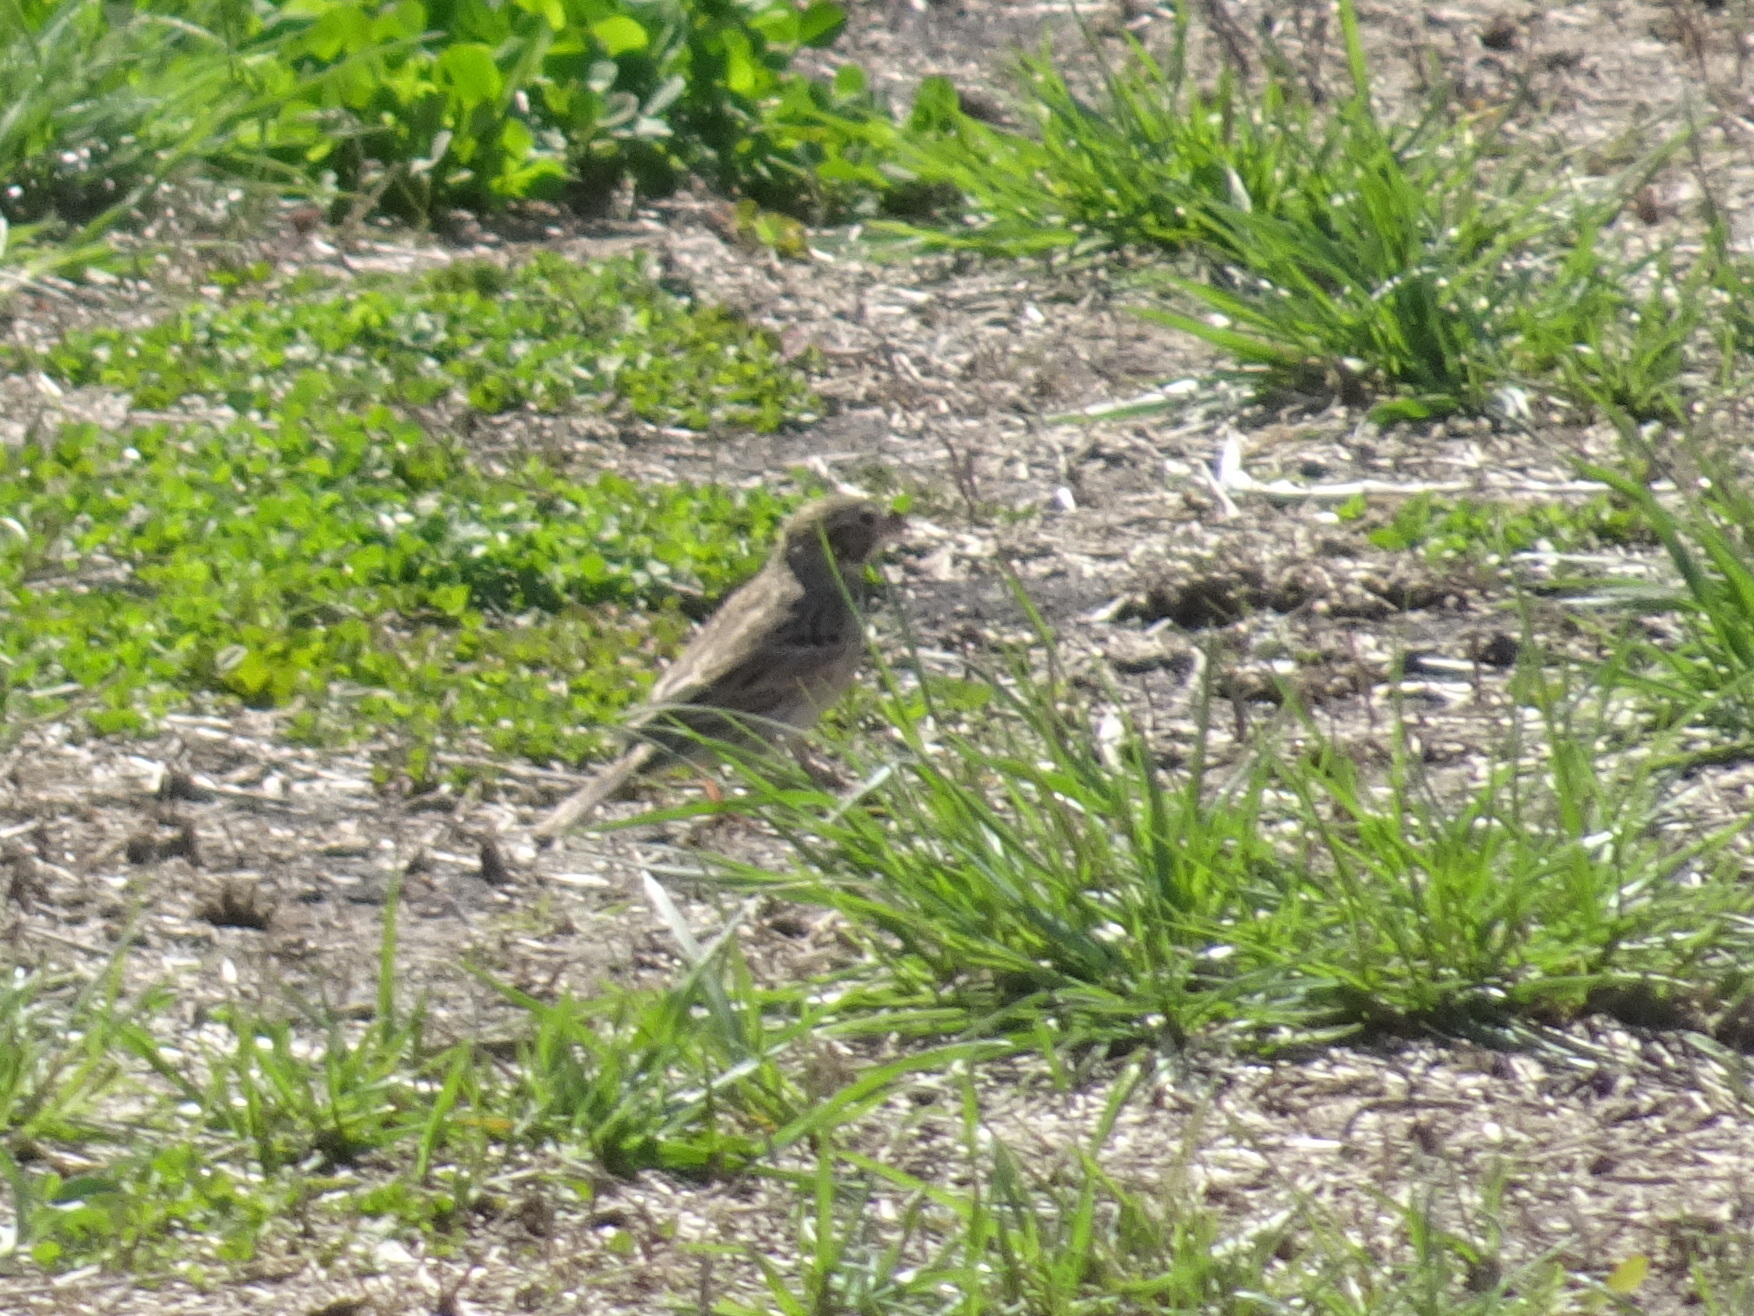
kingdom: Animalia
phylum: Chordata
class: Aves
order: Passeriformes
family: Passerellidae
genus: Pooecetes
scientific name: Pooecetes gramineus
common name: Vesper sparrow
